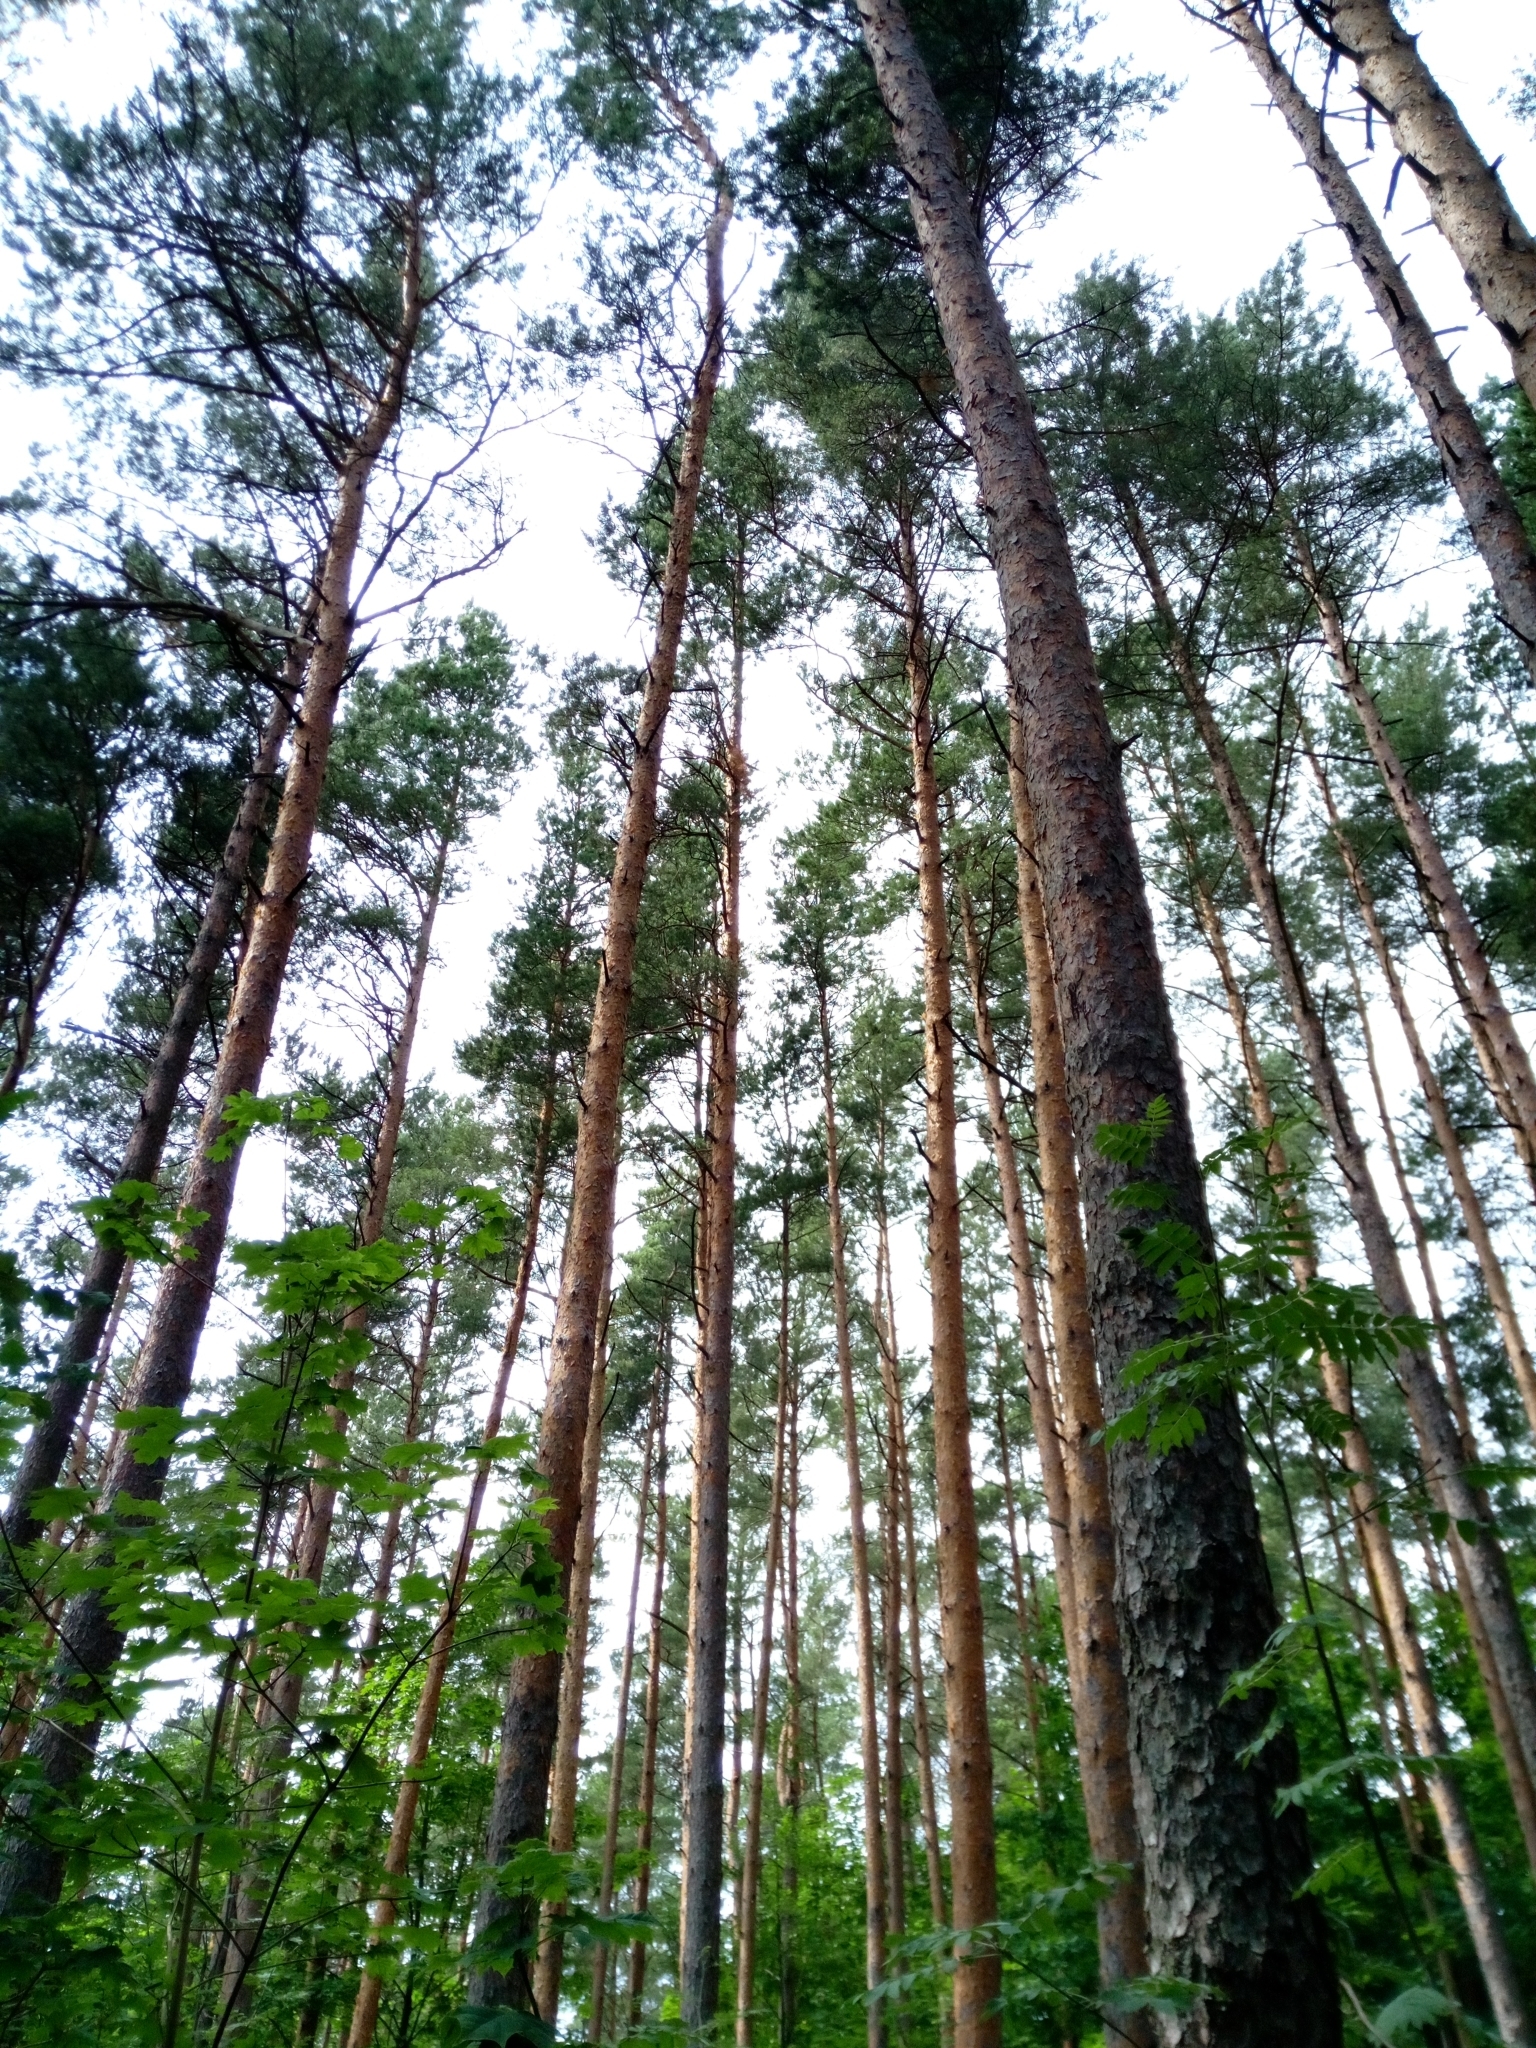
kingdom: Plantae
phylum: Tracheophyta
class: Pinopsida
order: Pinales
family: Pinaceae
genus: Pinus
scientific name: Pinus sylvestris
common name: Scots pine
